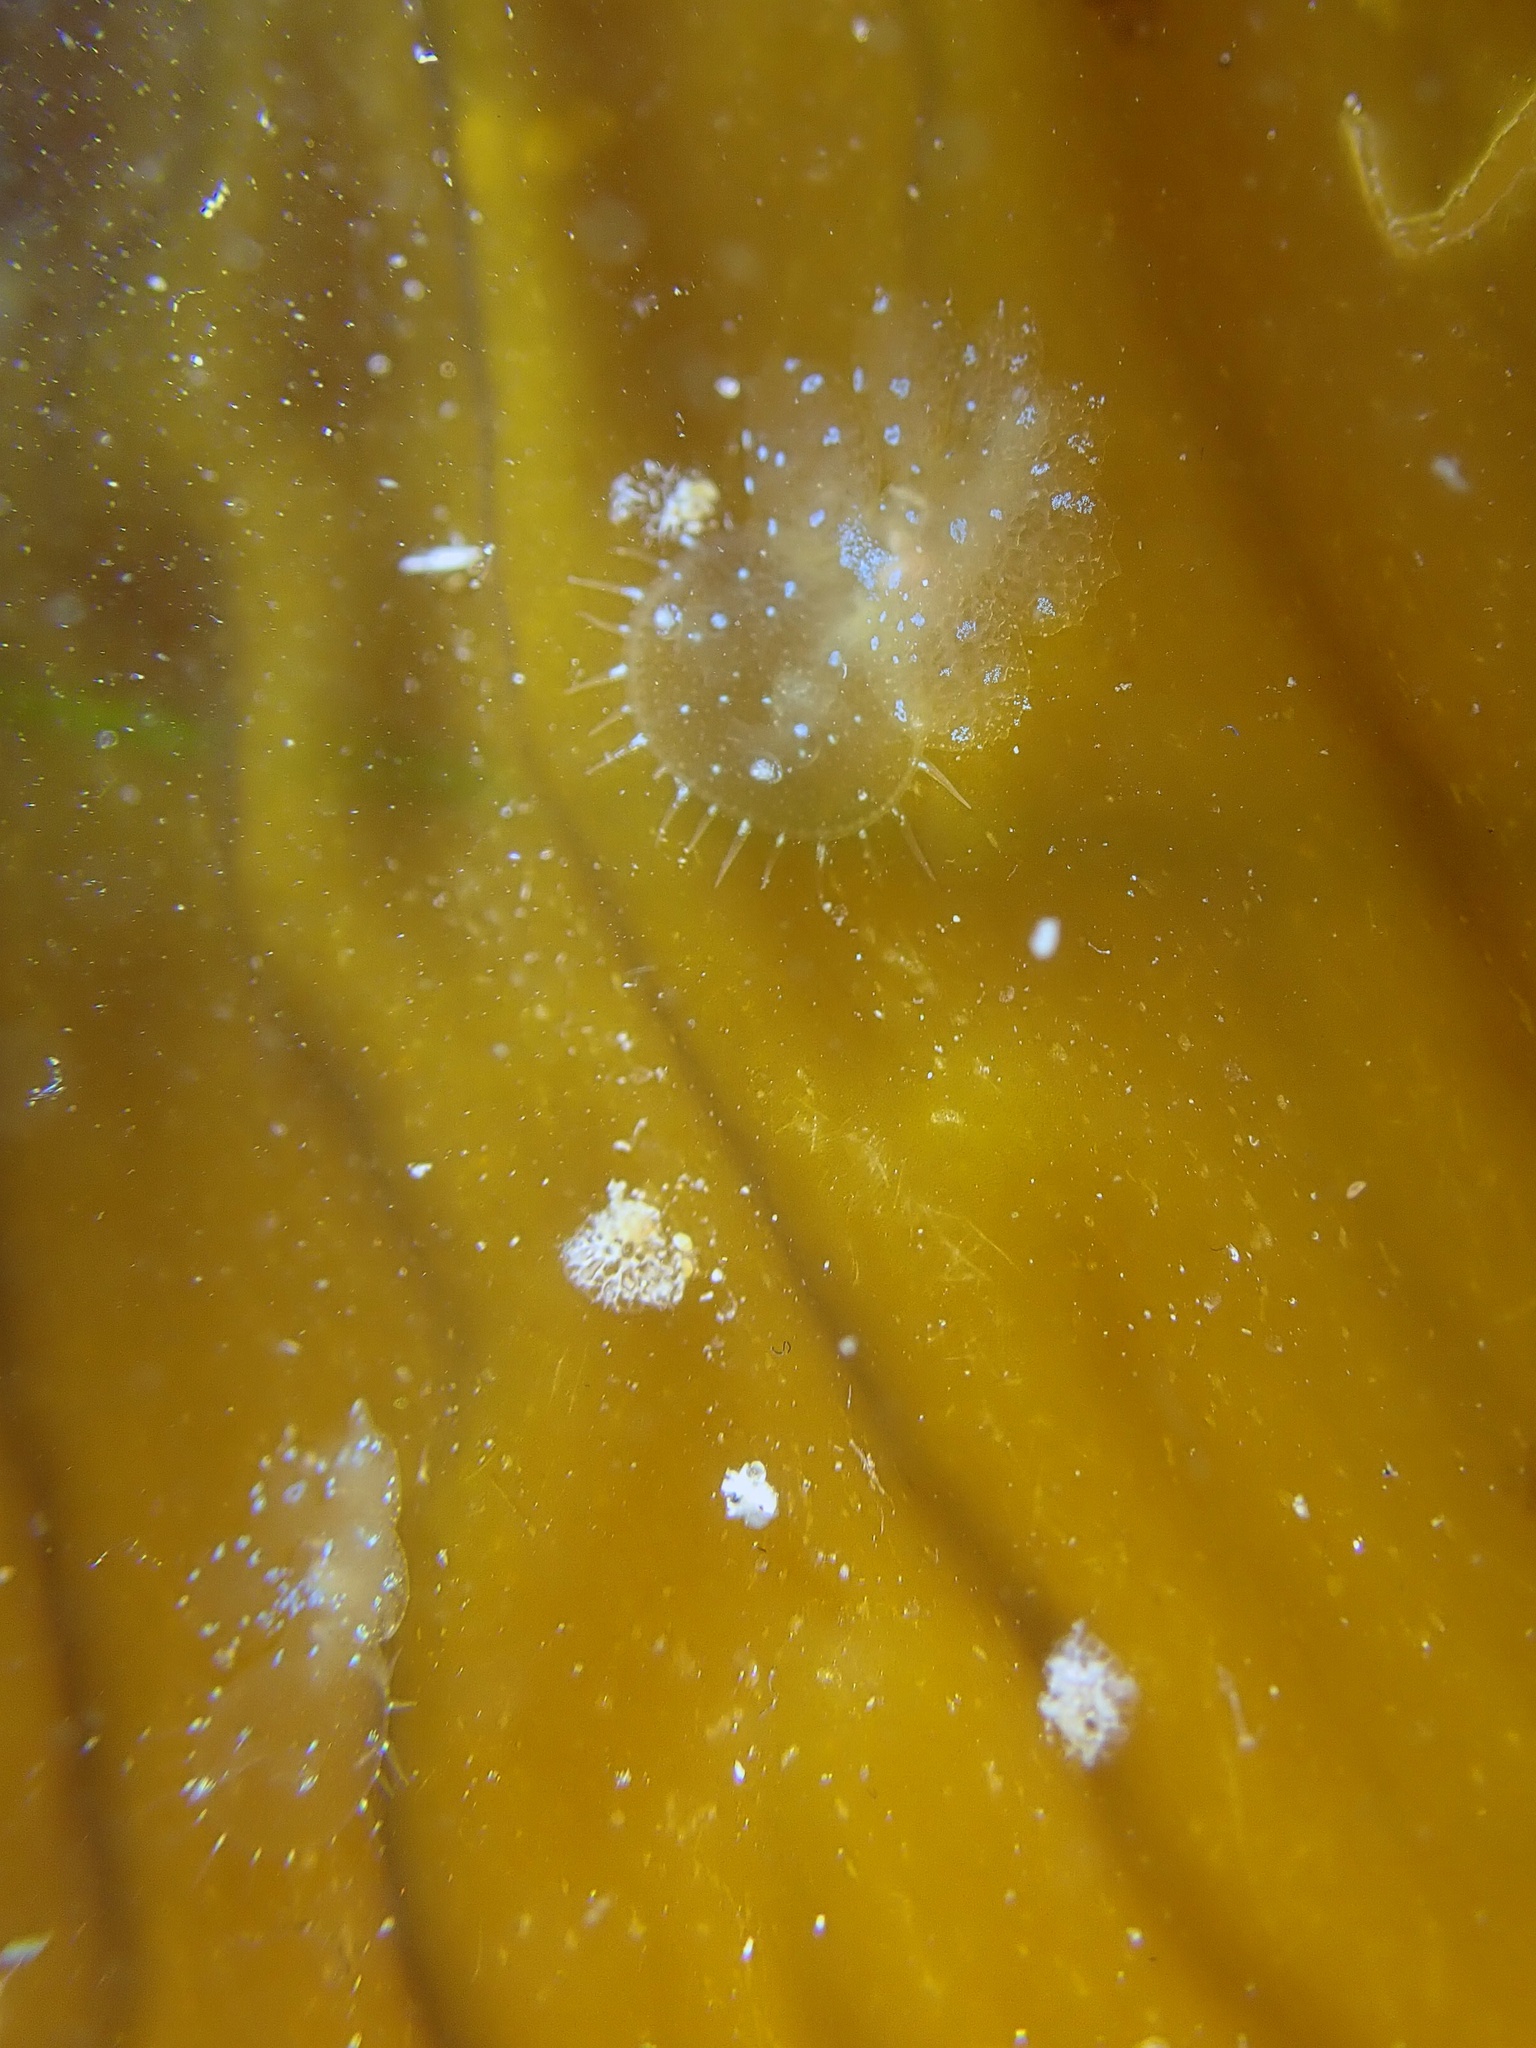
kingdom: Animalia
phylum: Mollusca
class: Gastropoda
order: Nudibranchia
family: Tethydidae
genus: Melibe
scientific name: Melibe leonina
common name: Lion nudibranch
